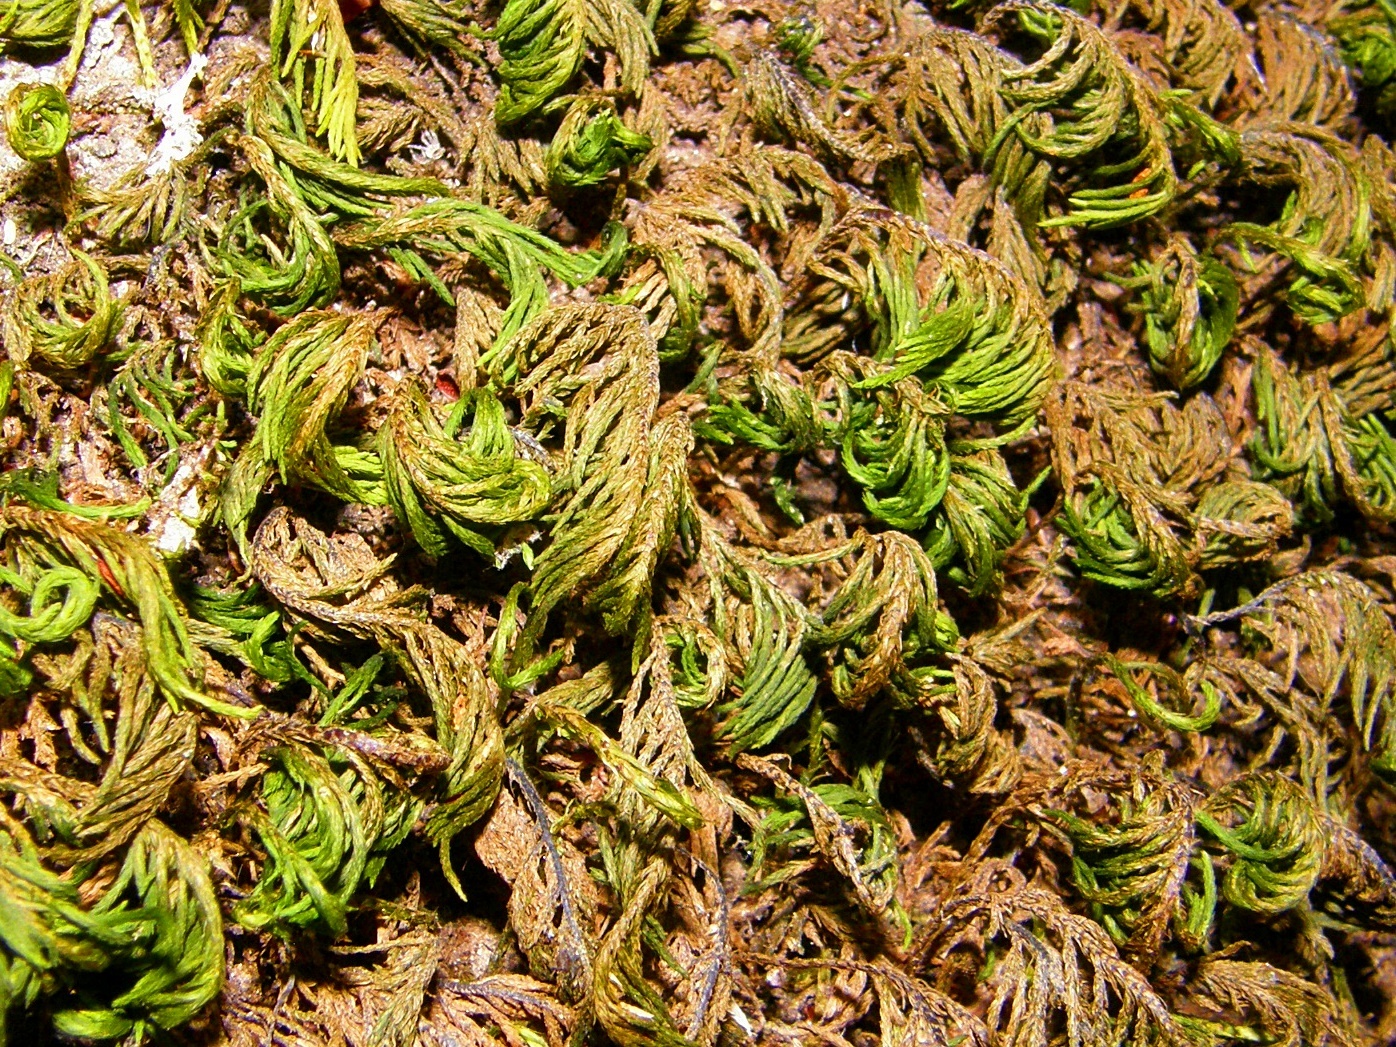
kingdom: Plantae
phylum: Bryophyta
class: Bryopsida
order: Hypnales
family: Cryphaeaceae
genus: Dendroalsia
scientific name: Dendroalsia abietina
